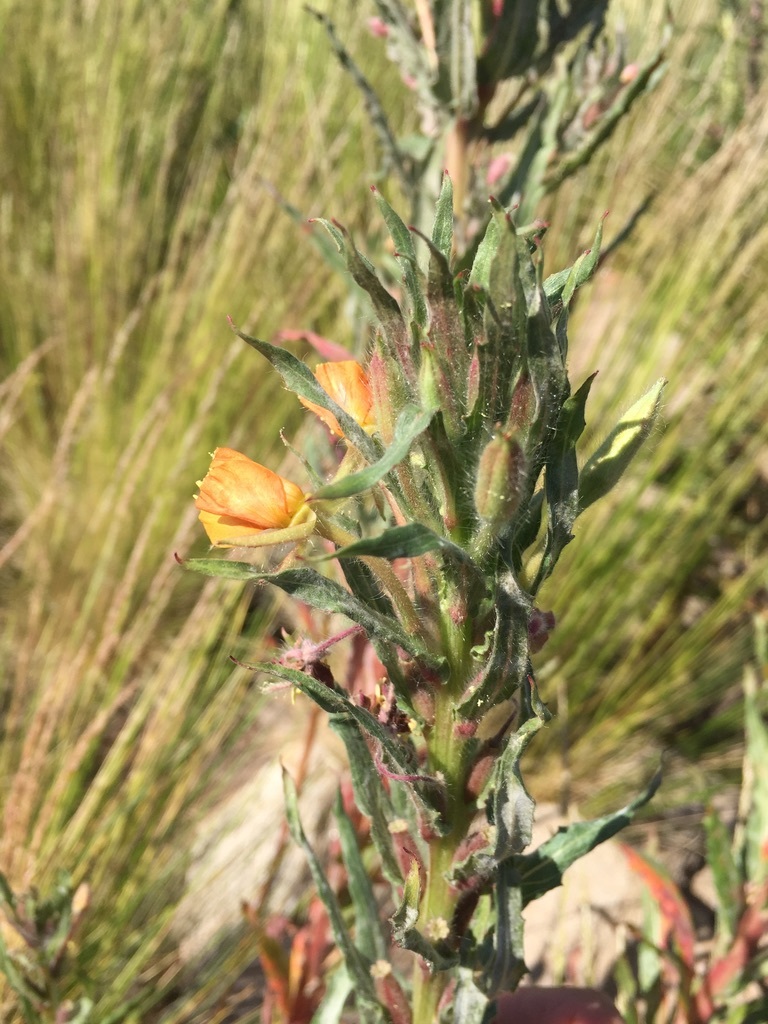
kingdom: Plantae
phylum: Tracheophyta
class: Magnoliopsida
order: Myrtales
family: Onagraceae
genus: Oenothera
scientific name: Oenothera glazioviana
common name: Large-flowered evening-primrose
